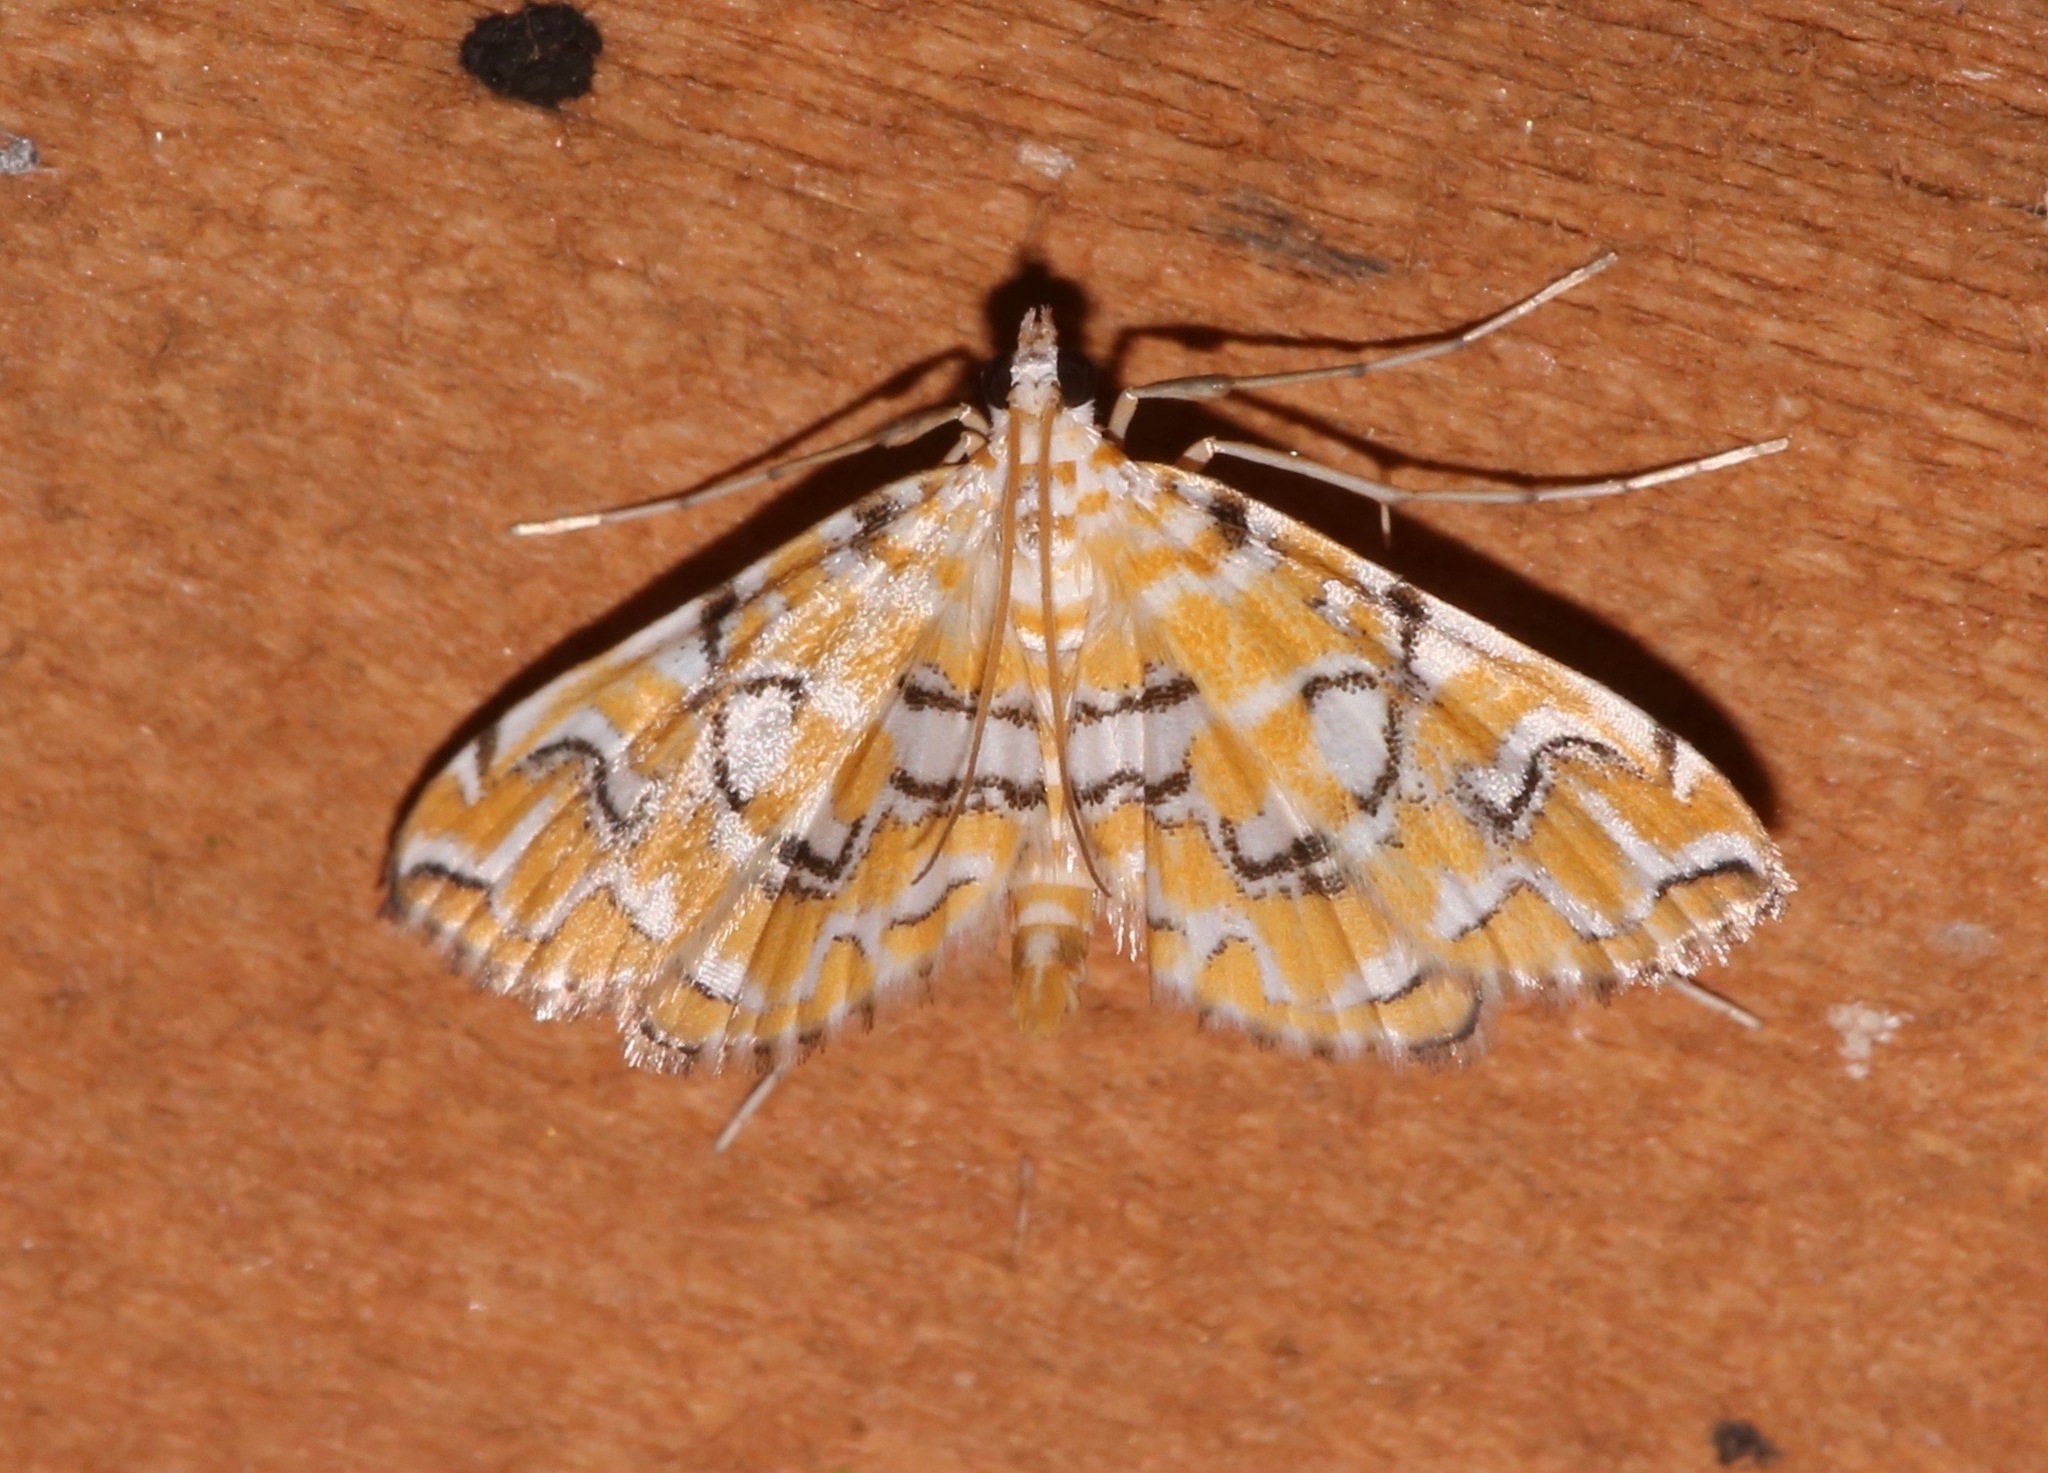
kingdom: Animalia
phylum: Arthropoda
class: Insecta
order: Lepidoptera
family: Crambidae
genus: Elophila
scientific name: Elophila icciusalis
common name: Pondside pyralid moth
